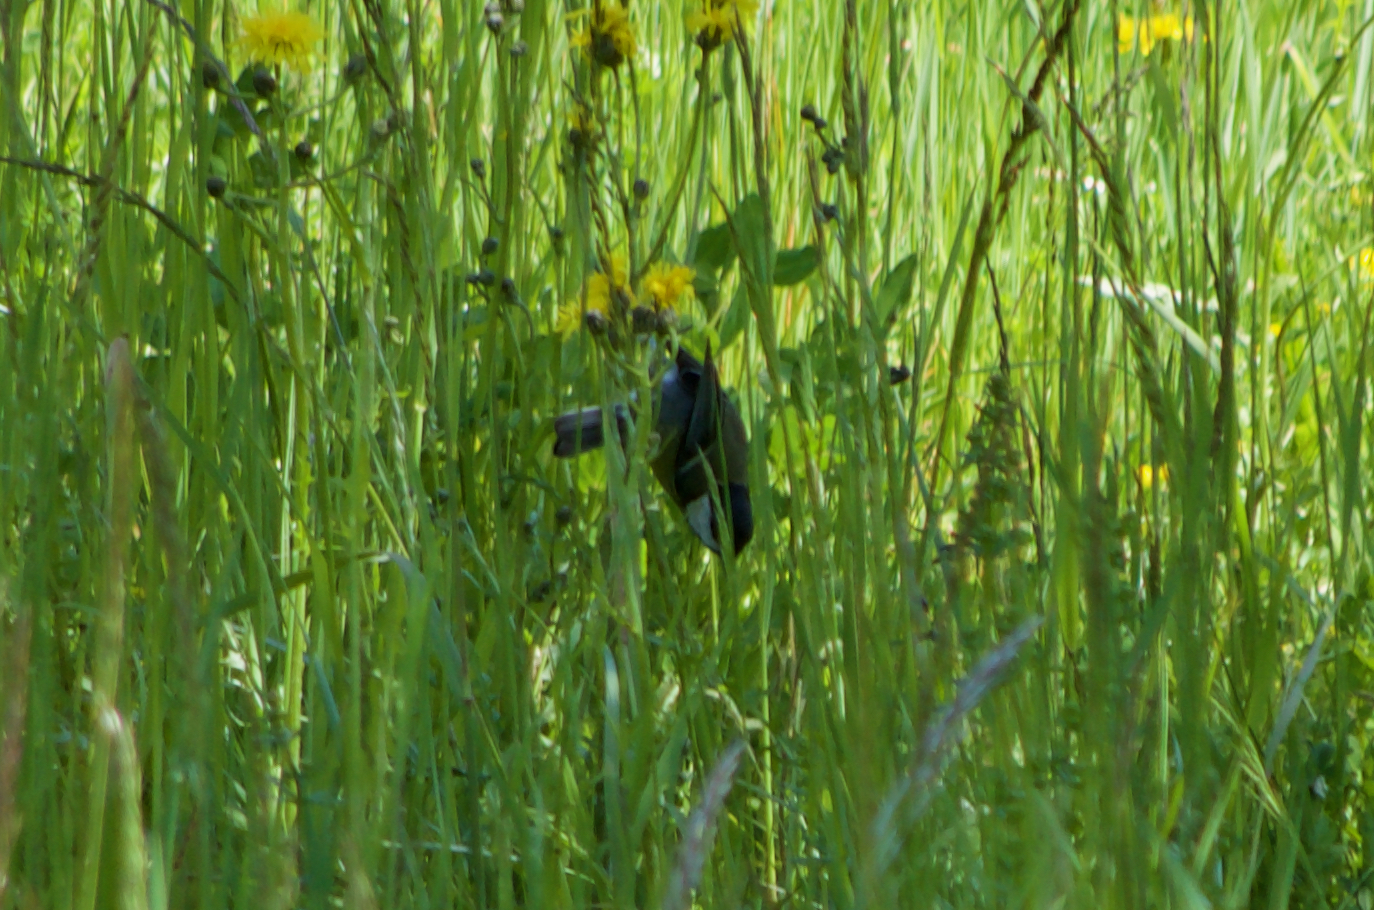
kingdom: Animalia
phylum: Chordata
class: Aves
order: Passeriformes
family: Paridae
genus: Parus
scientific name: Parus major
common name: Great tit
